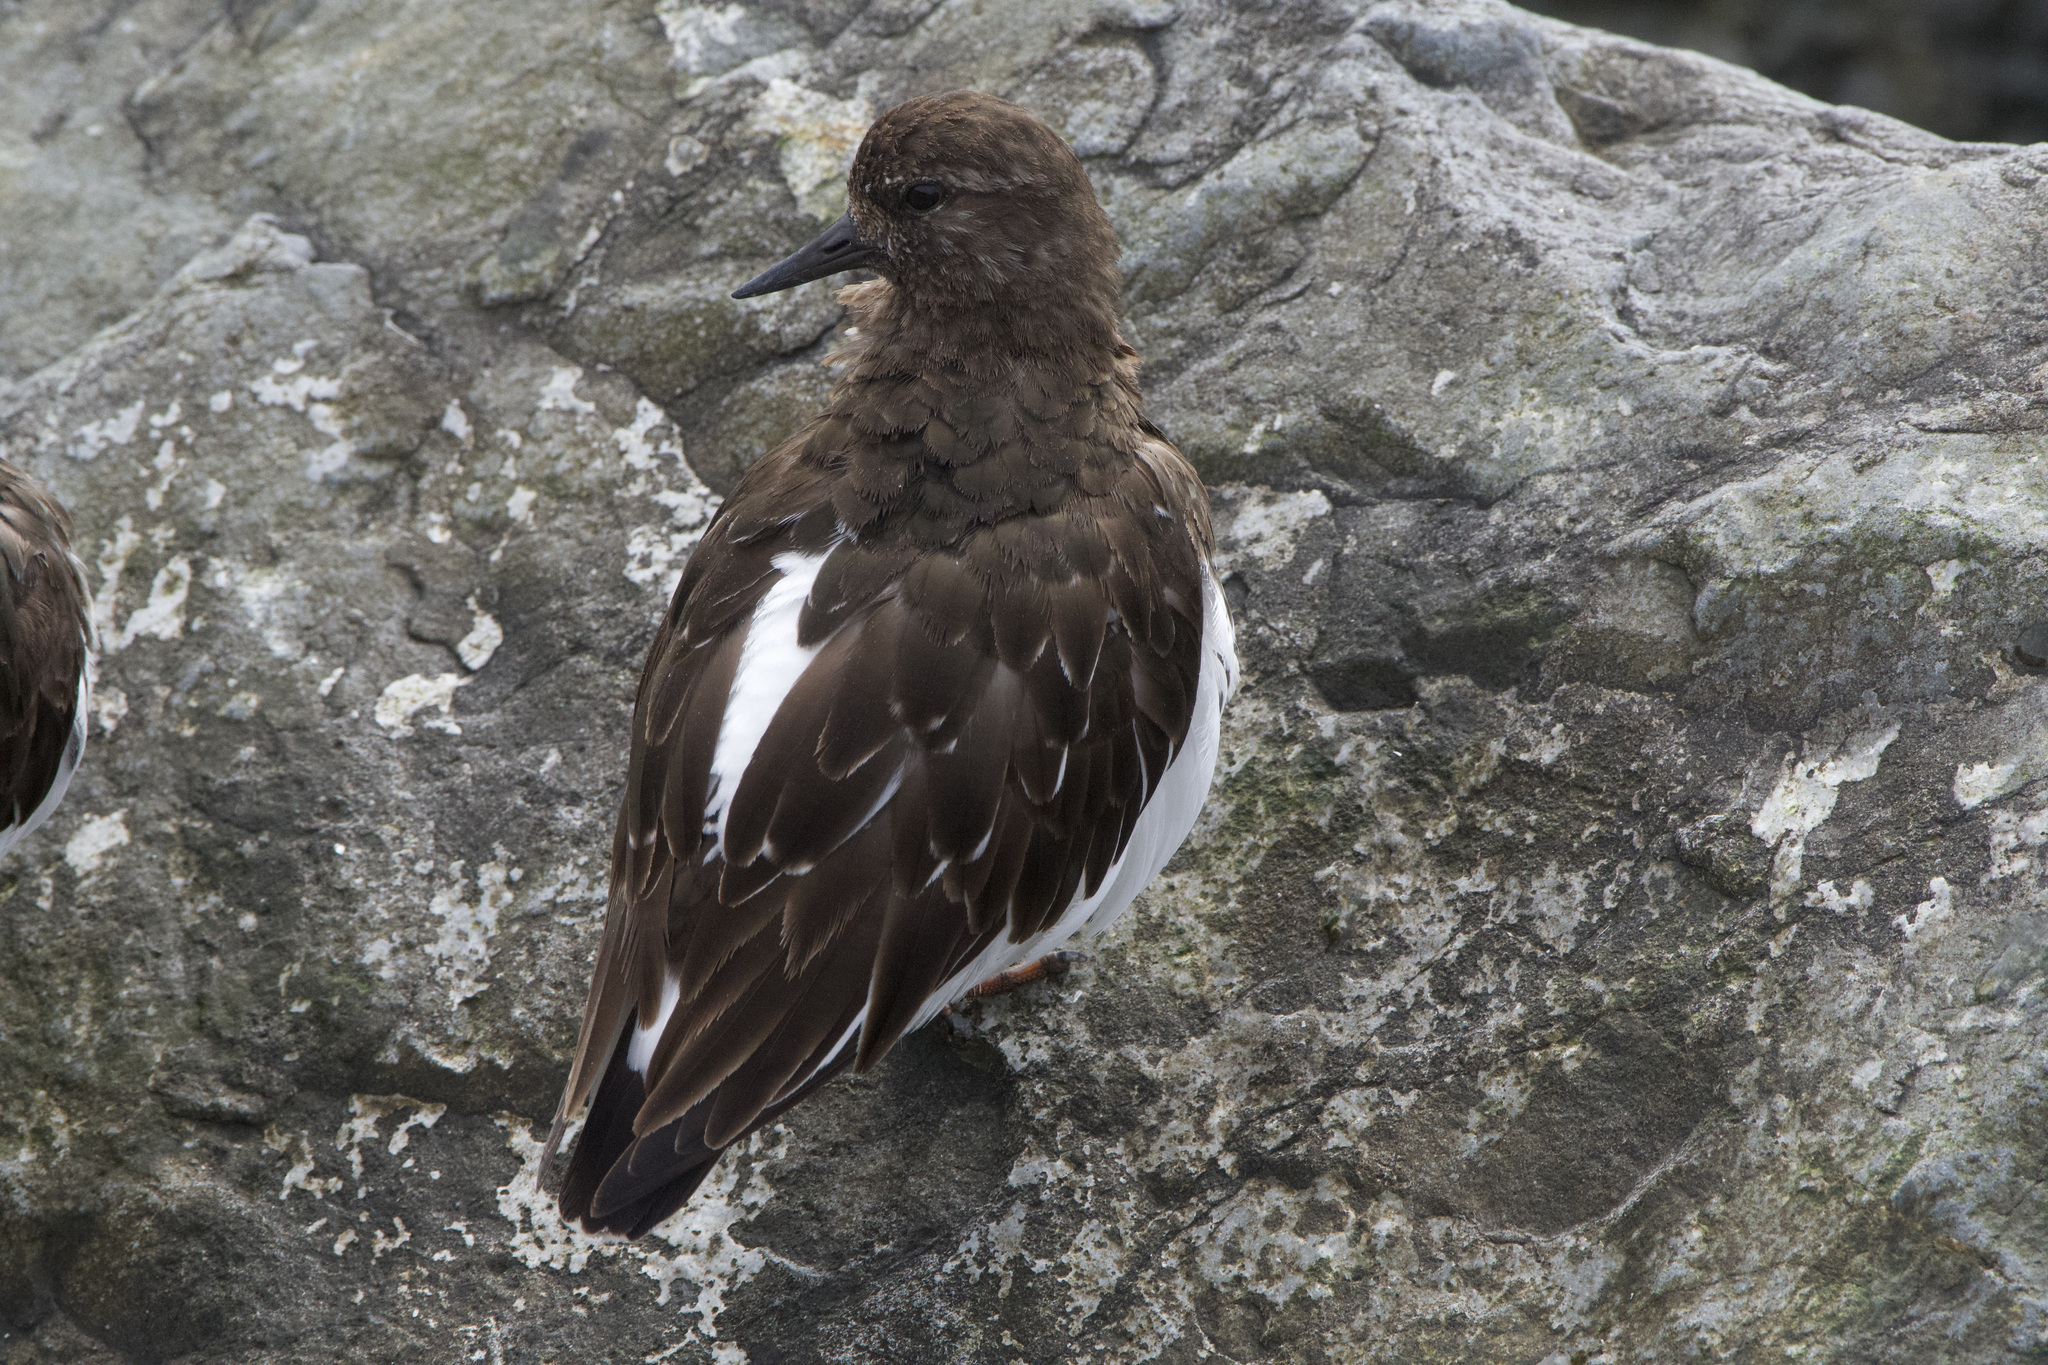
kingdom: Animalia
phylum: Chordata
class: Aves
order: Charadriiformes
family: Scolopacidae
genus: Arenaria
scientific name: Arenaria melanocephala
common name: Black turnstone
